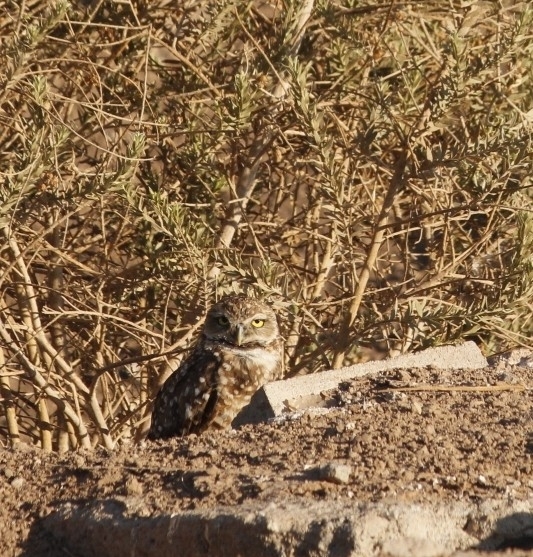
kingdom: Animalia
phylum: Chordata
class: Aves
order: Strigiformes
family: Strigidae
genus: Athene
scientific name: Athene cunicularia
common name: Burrowing owl
